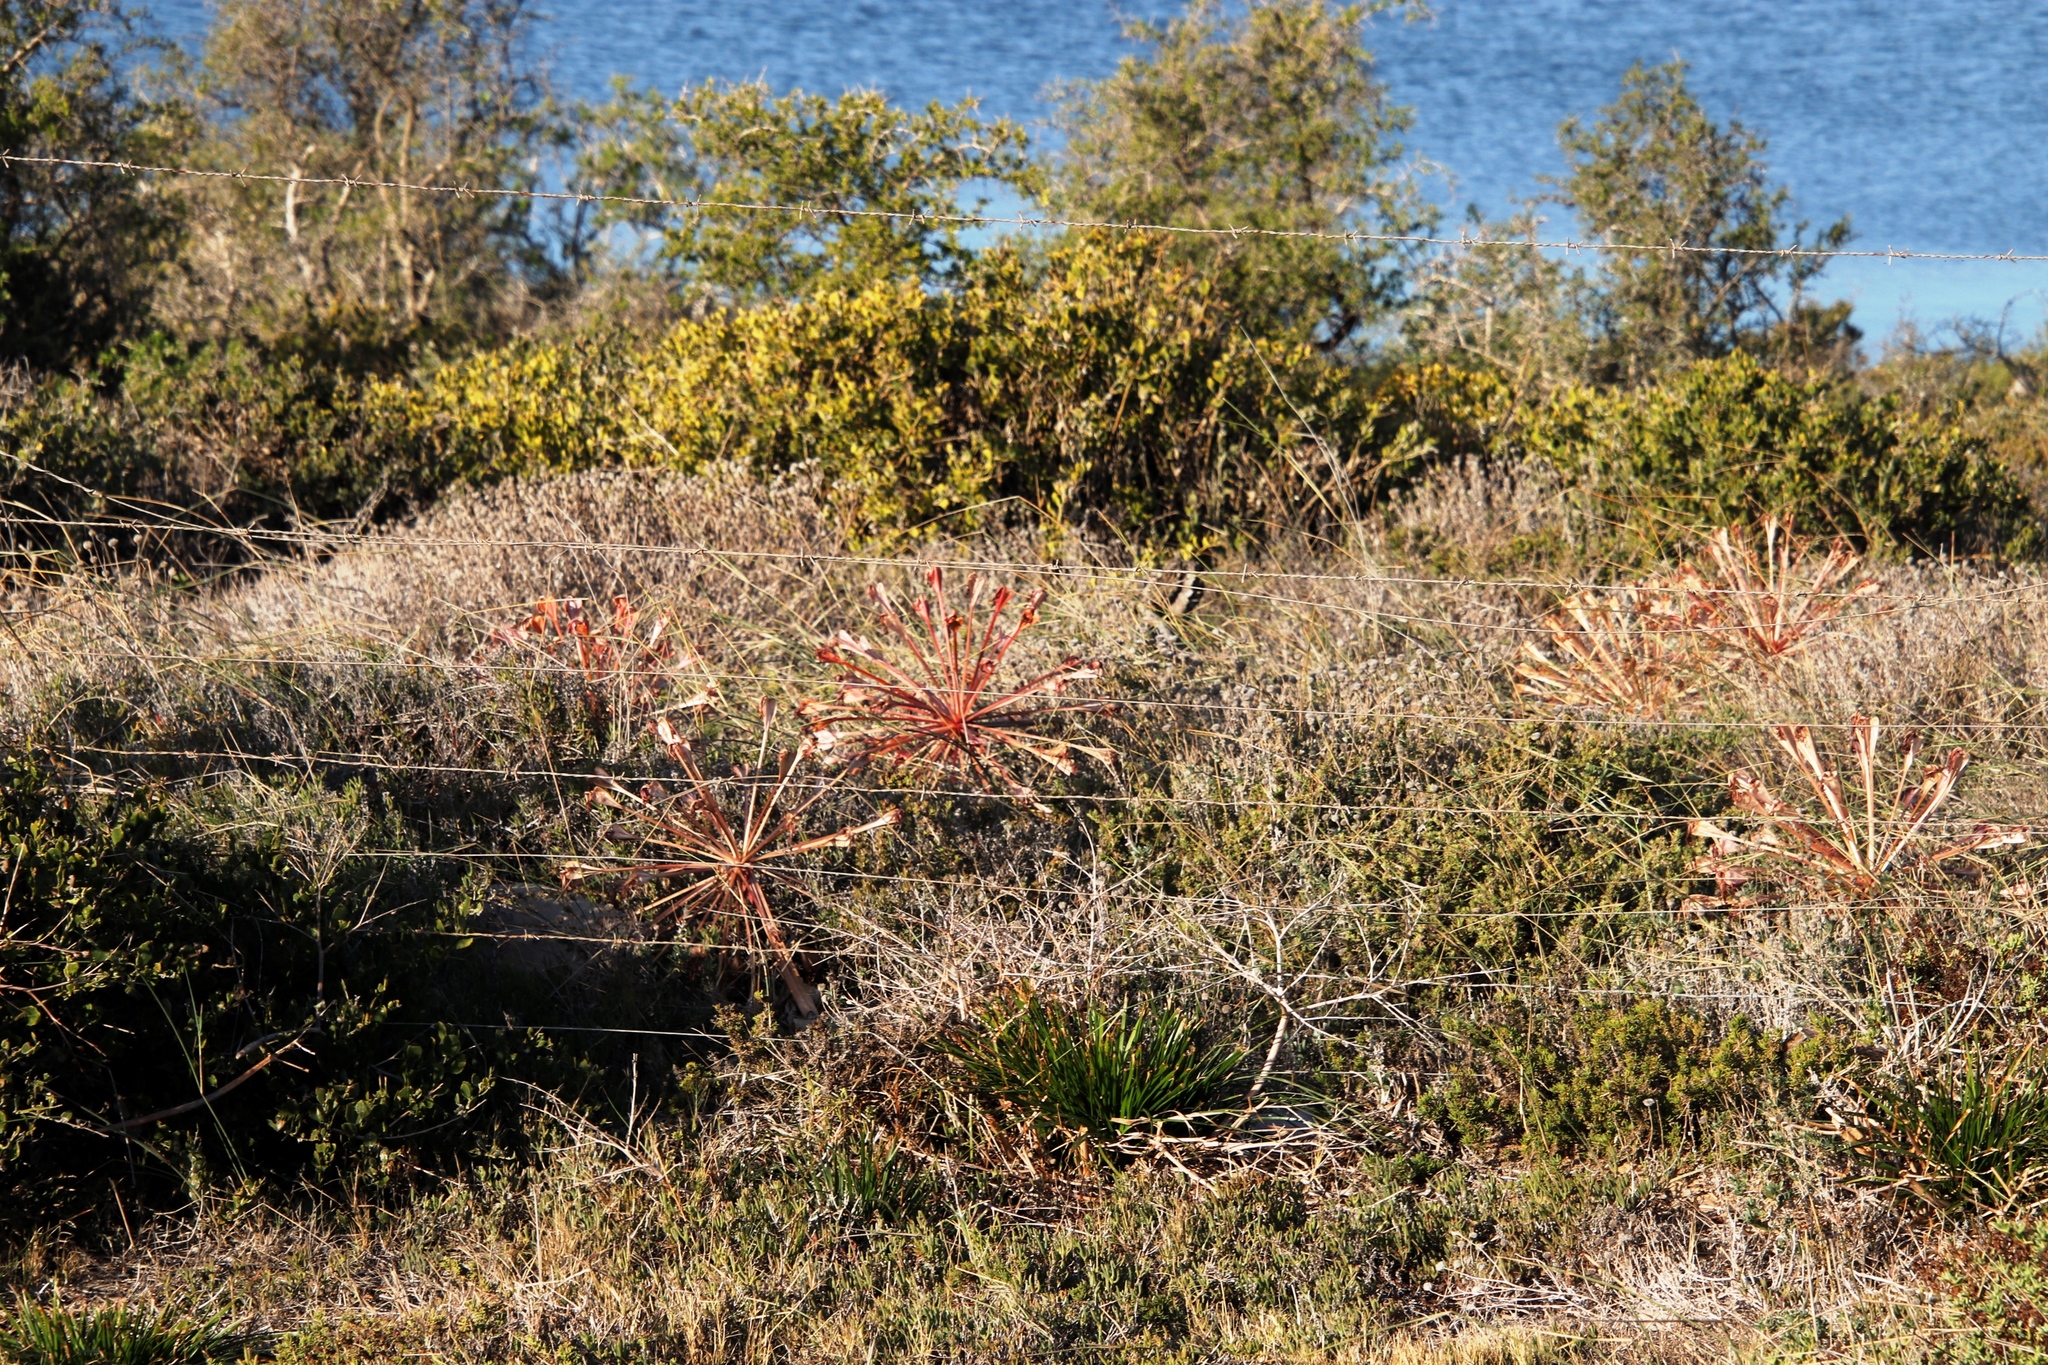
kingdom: Plantae
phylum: Tracheophyta
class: Liliopsida
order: Asparagales
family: Amaryllidaceae
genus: Brunsvigia
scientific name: Brunsvigia orientalis
